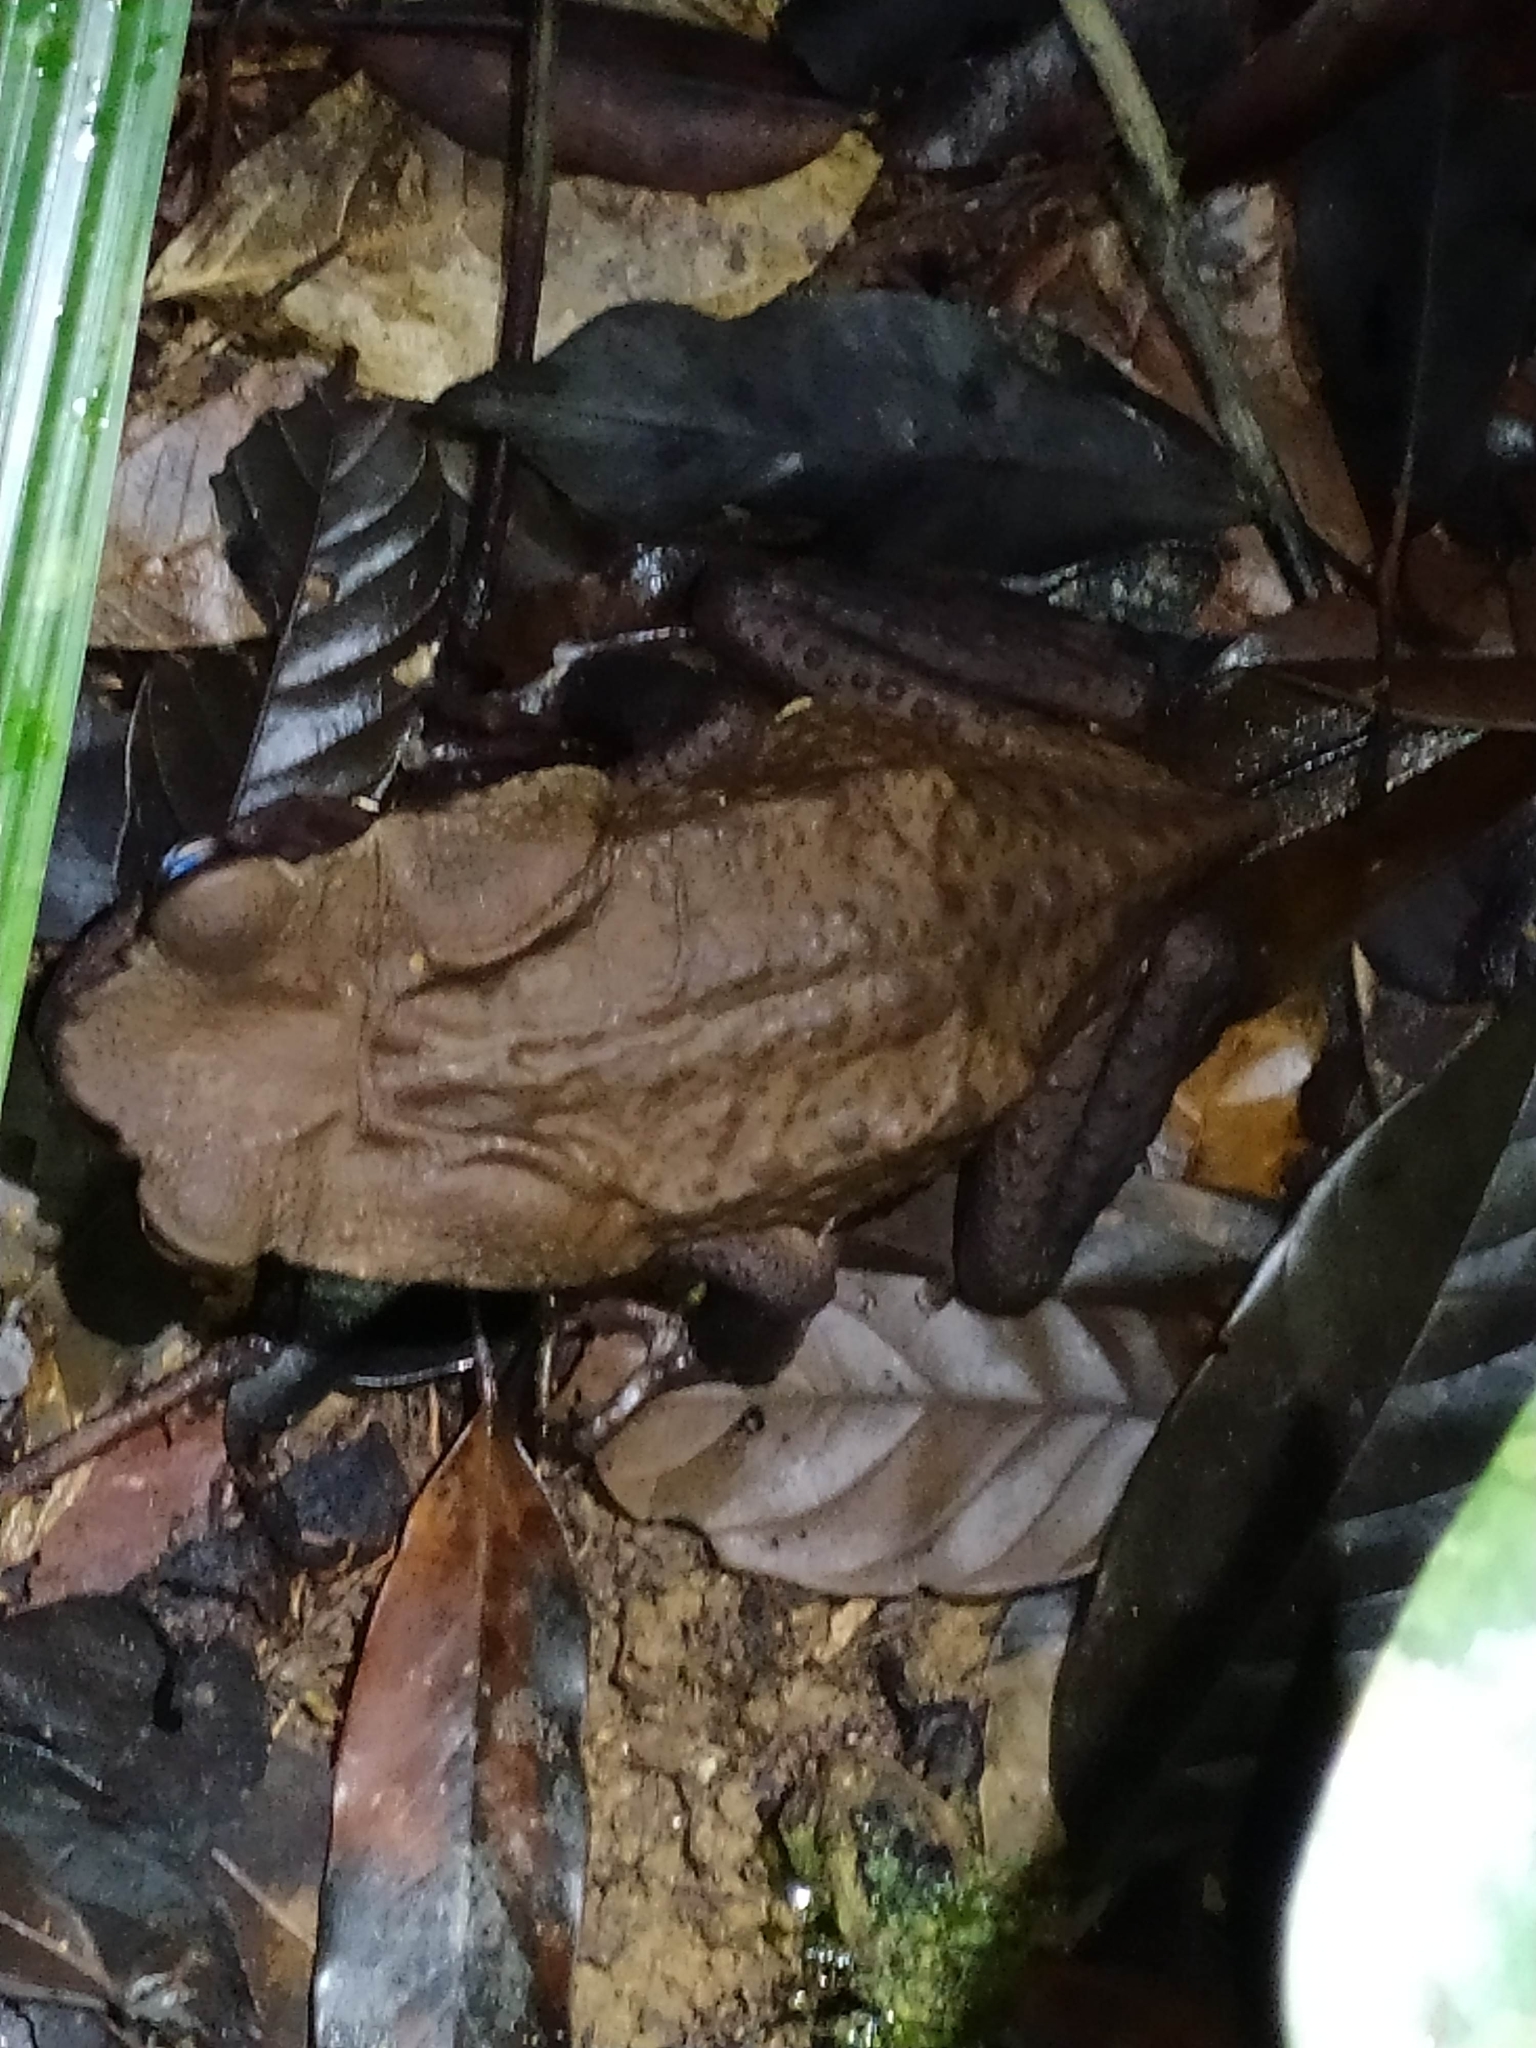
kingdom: Animalia
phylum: Chordata
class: Amphibia
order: Anura
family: Bufonidae
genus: Rhaebo
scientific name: Rhaebo guttatus
